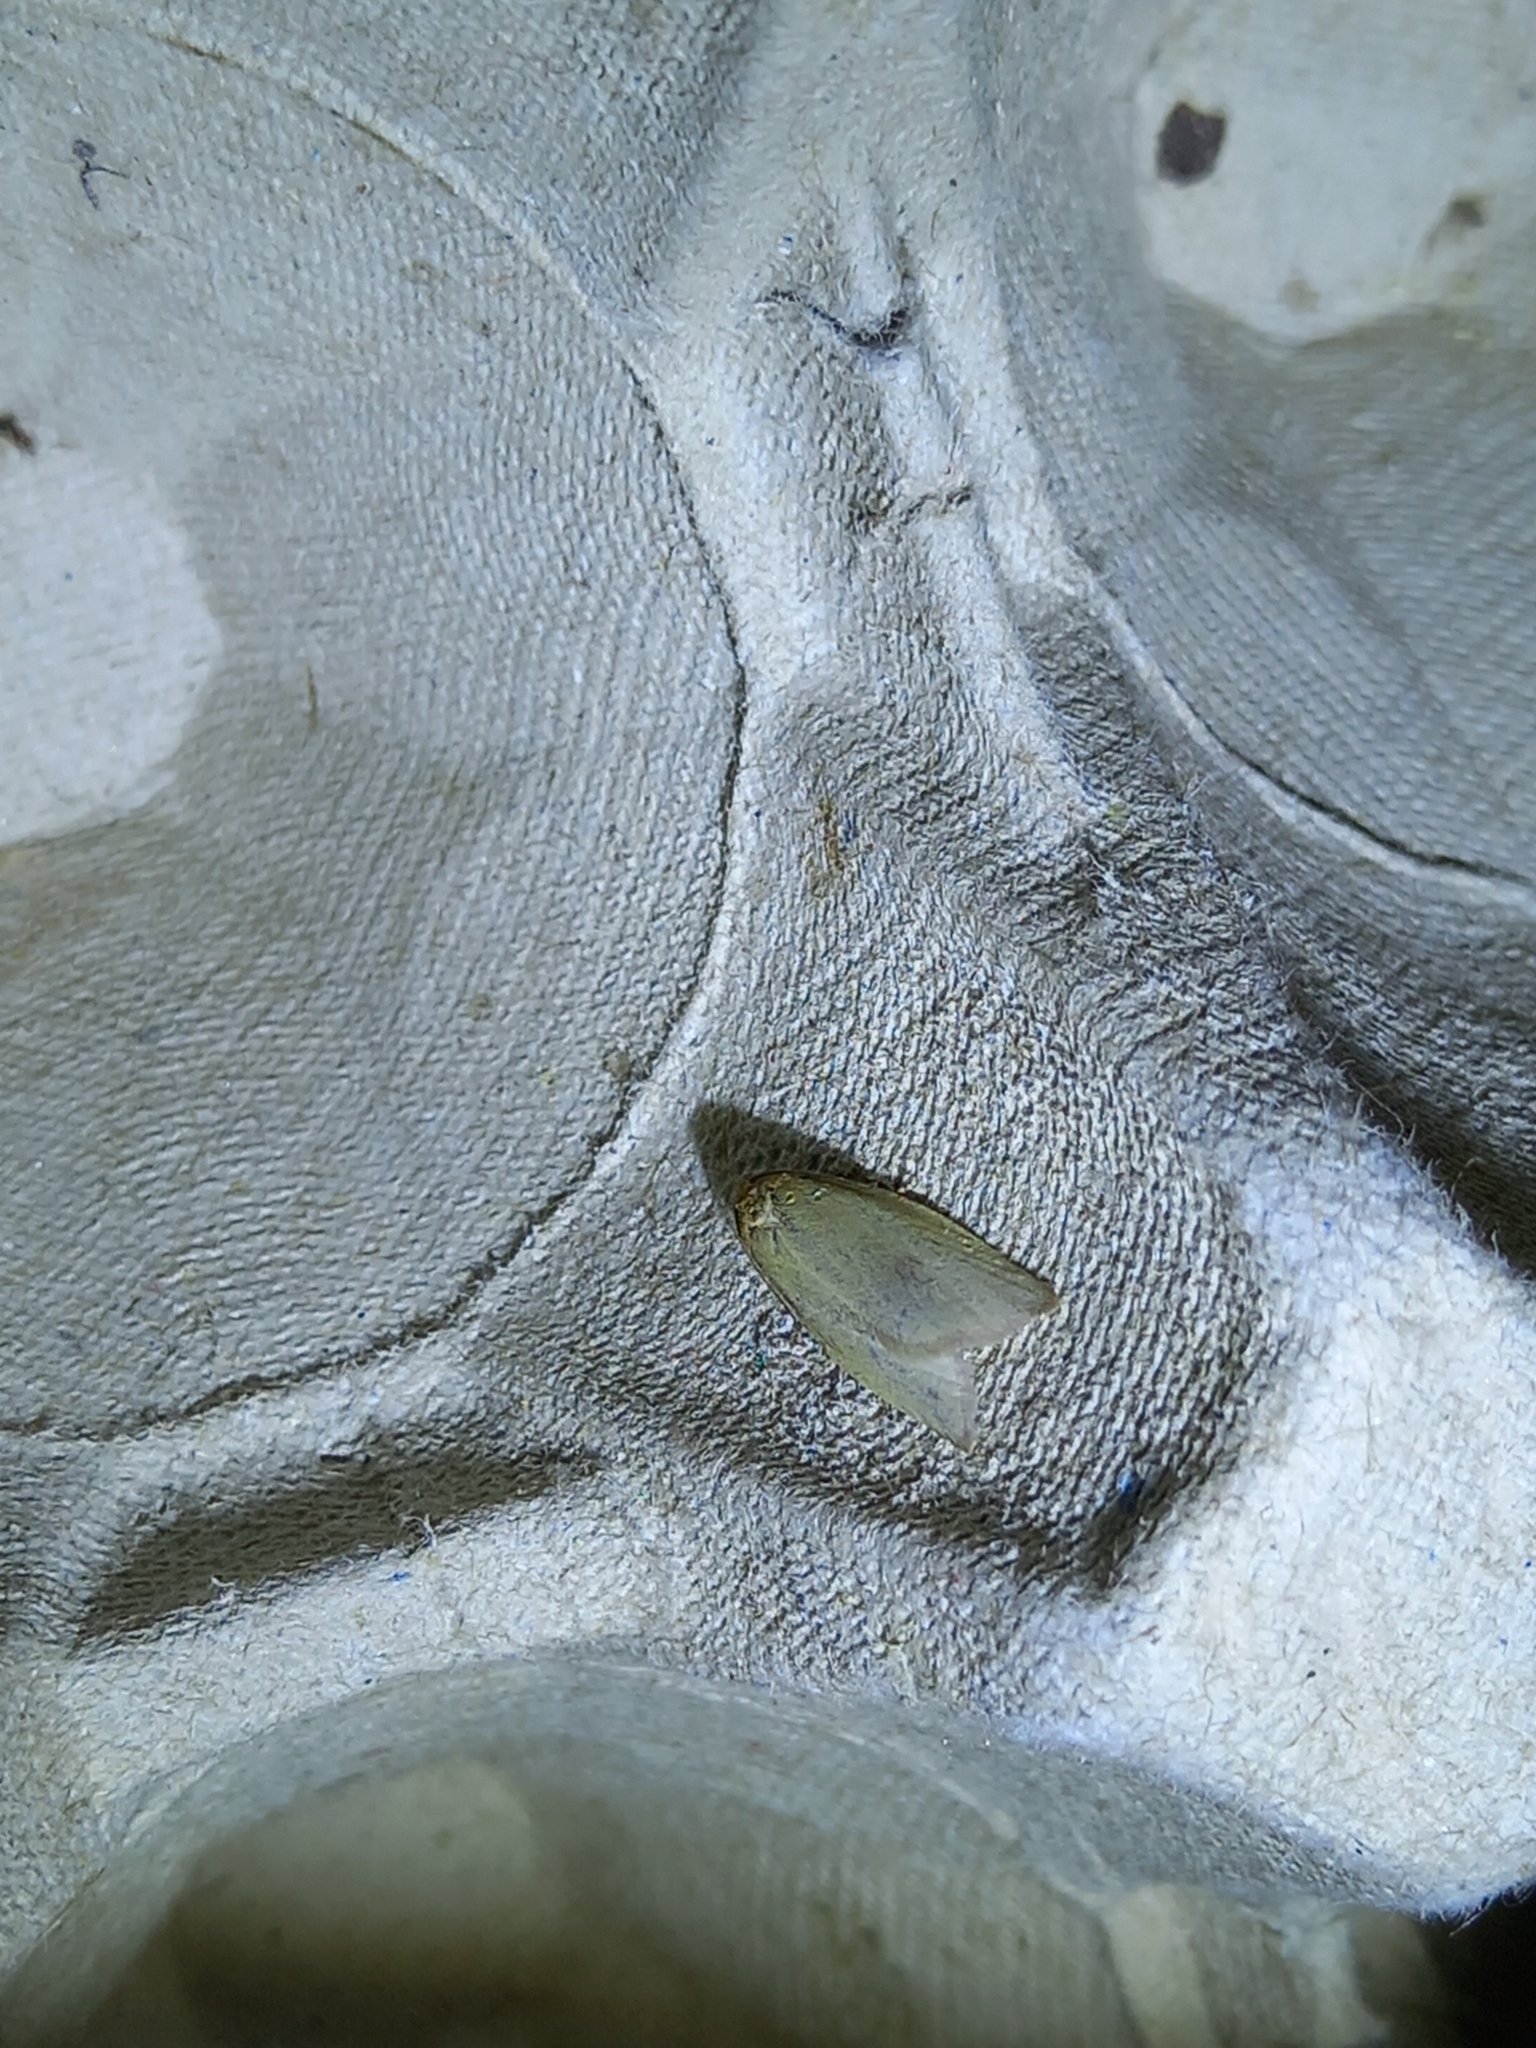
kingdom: Animalia
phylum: Arthropoda
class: Insecta
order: Lepidoptera
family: Tortricidae
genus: Tortrix
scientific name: Tortrix viridana
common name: Green oak tortrix
